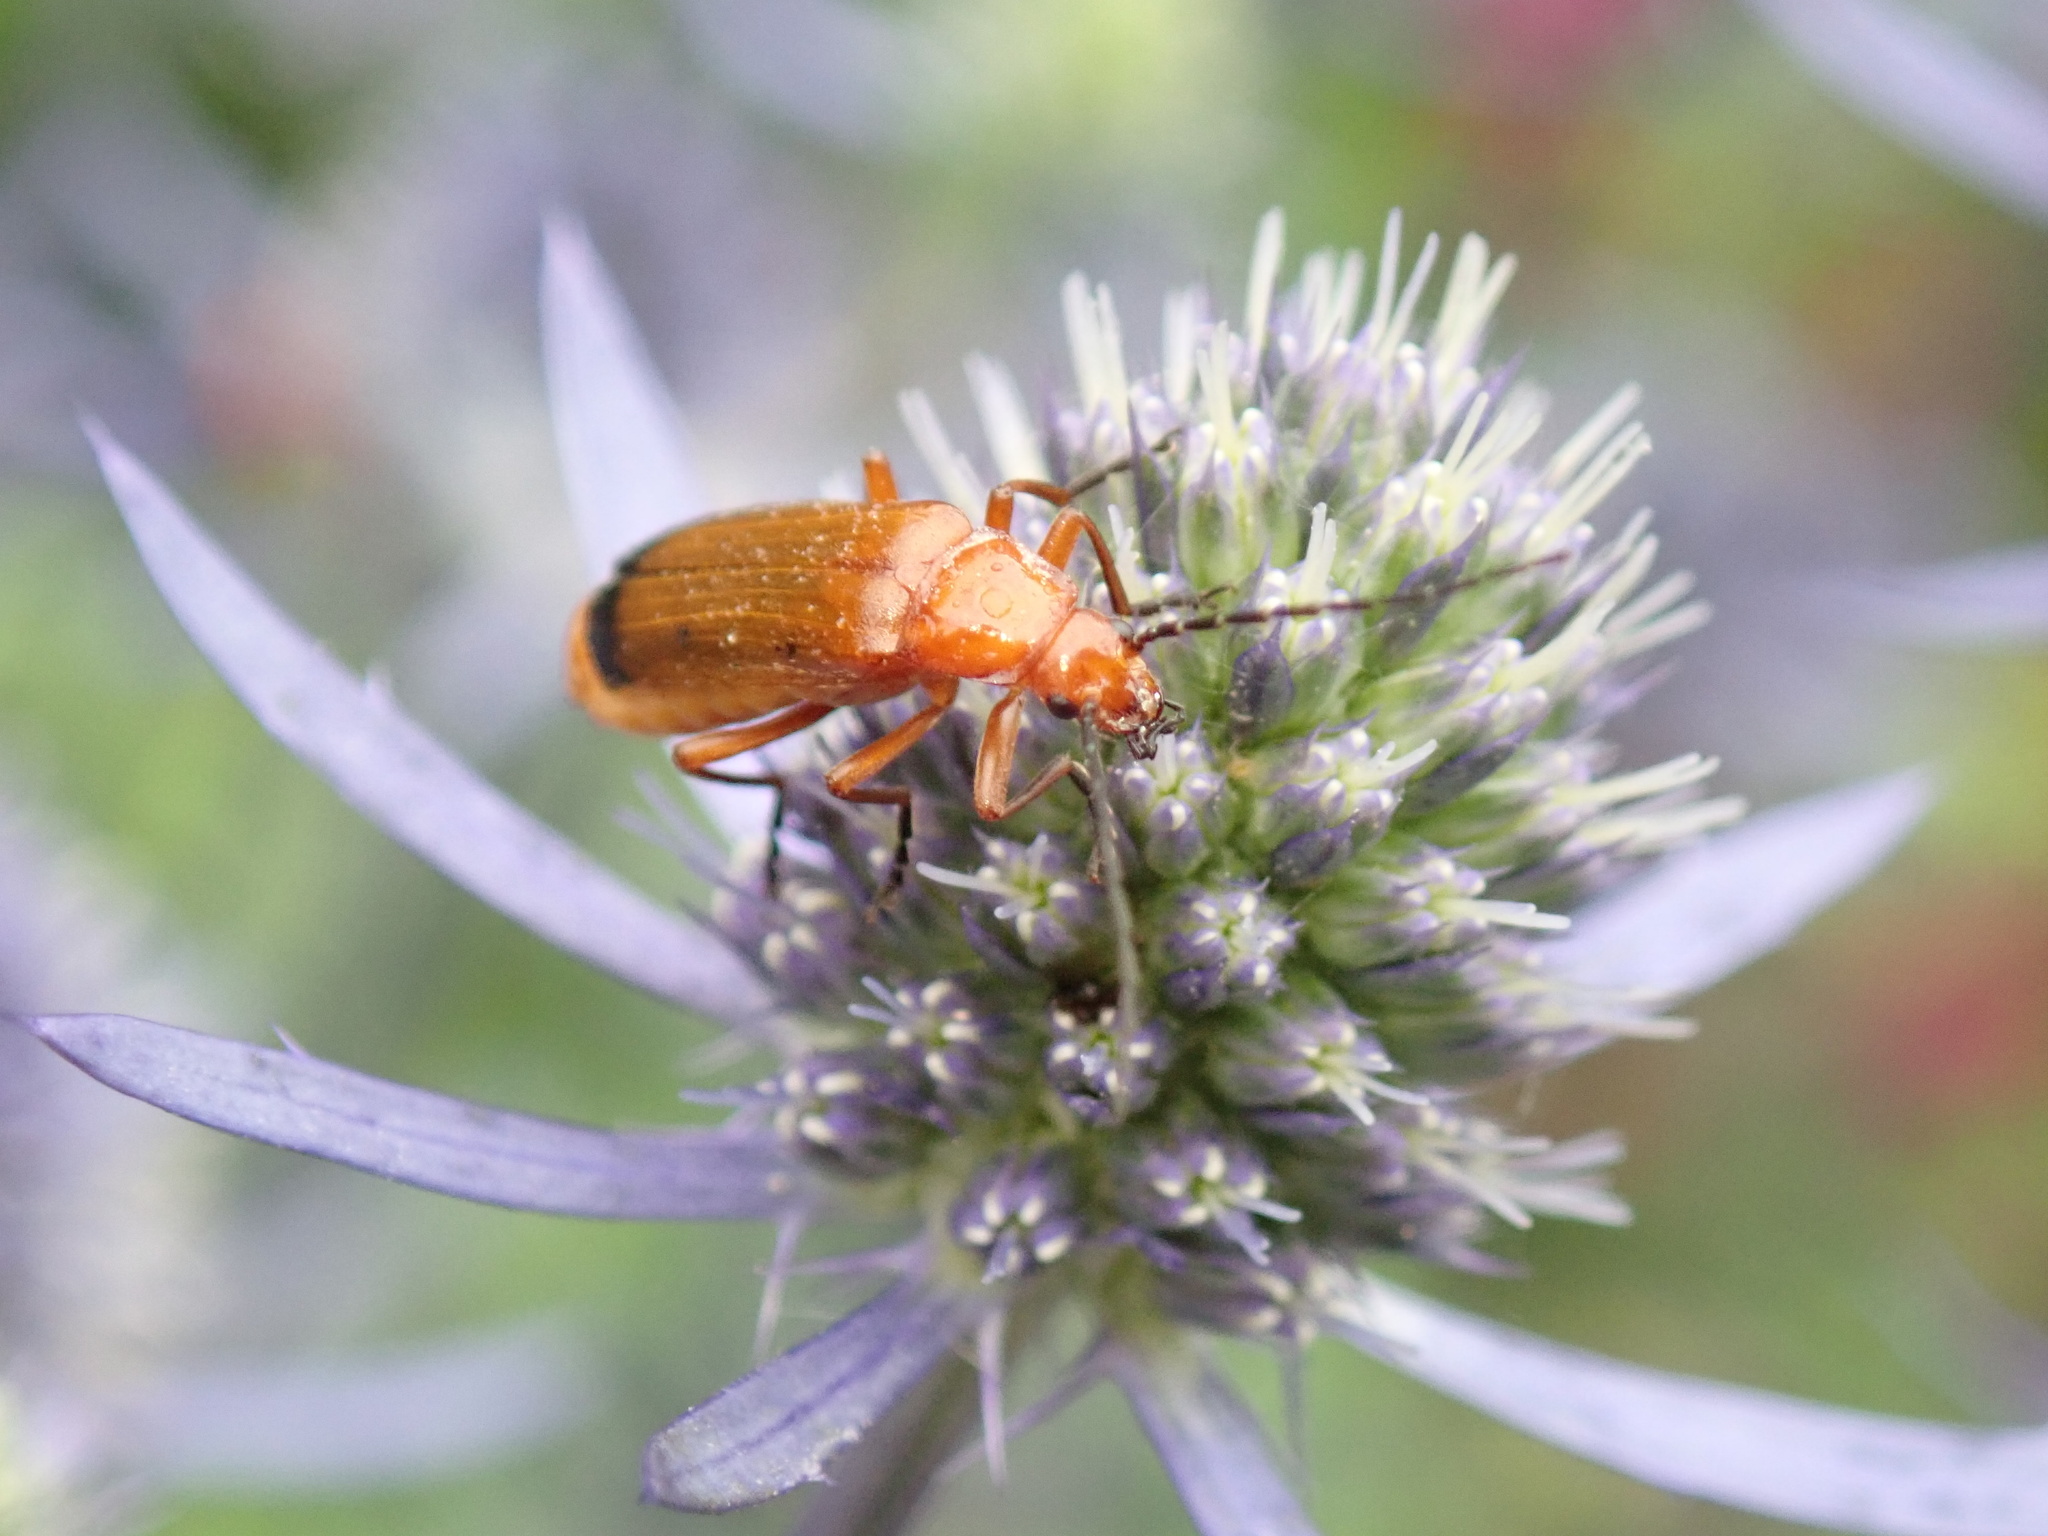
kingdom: Animalia
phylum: Arthropoda
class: Insecta
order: Coleoptera
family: Cantharidae
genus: Rhagonycha
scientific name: Rhagonycha fulva
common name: Common red soldier beetle
